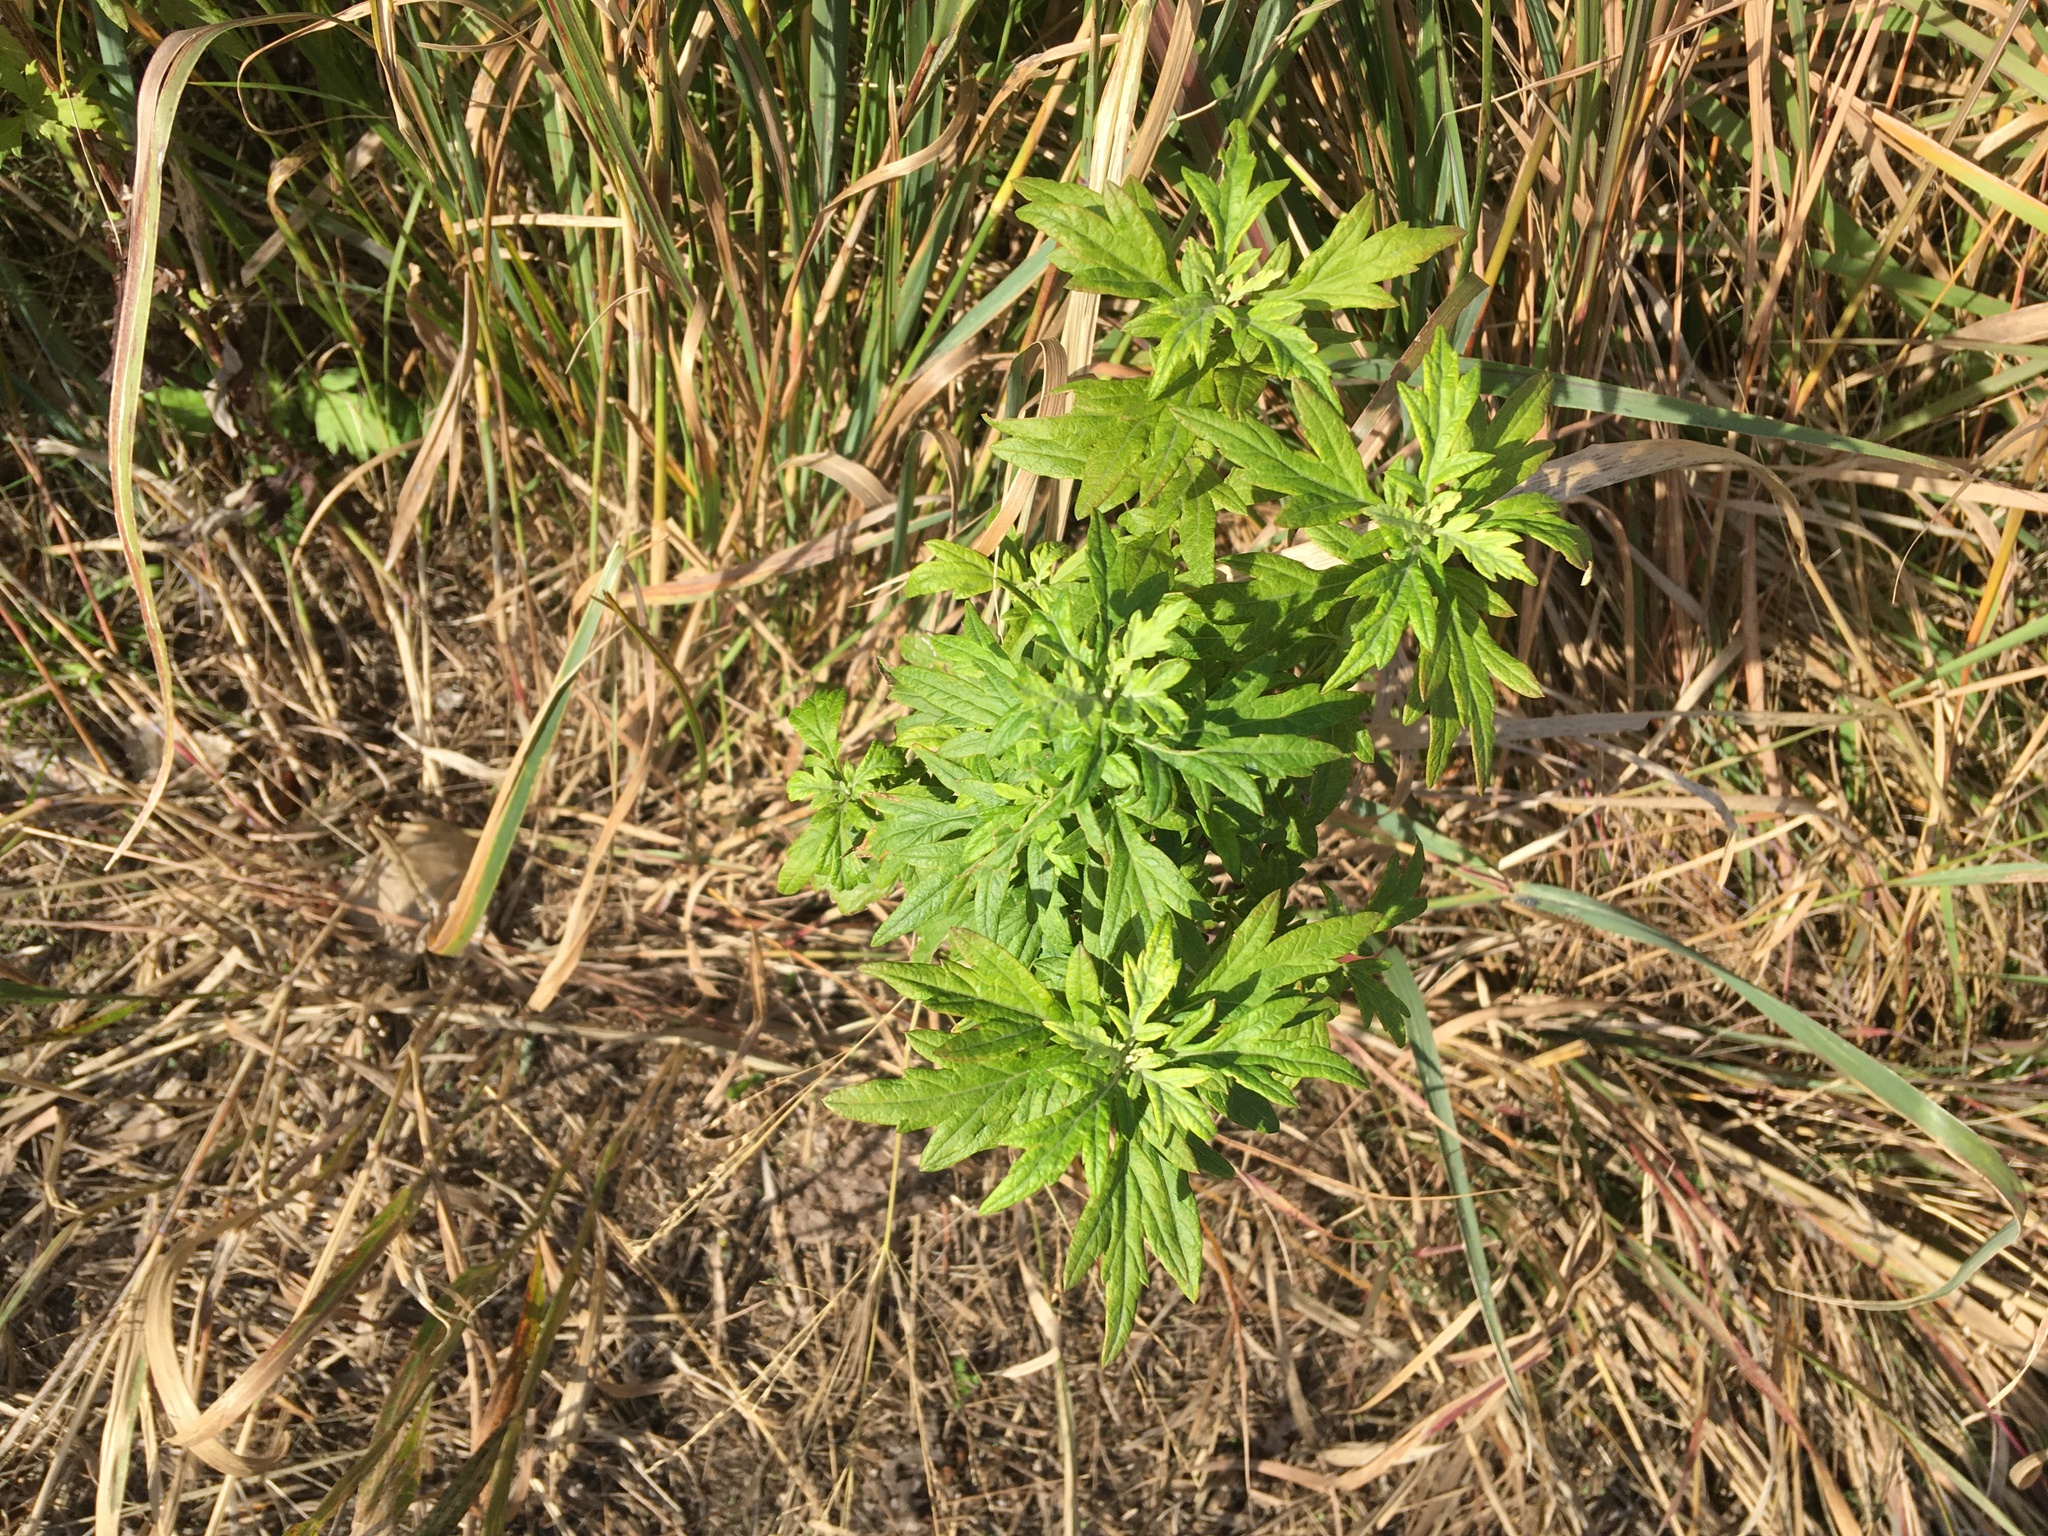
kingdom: Plantae
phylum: Tracheophyta
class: Magnoliopsida
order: Asterales
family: Asteraceae
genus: Artemisia
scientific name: Artemisia vulgaris
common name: Mugwort
